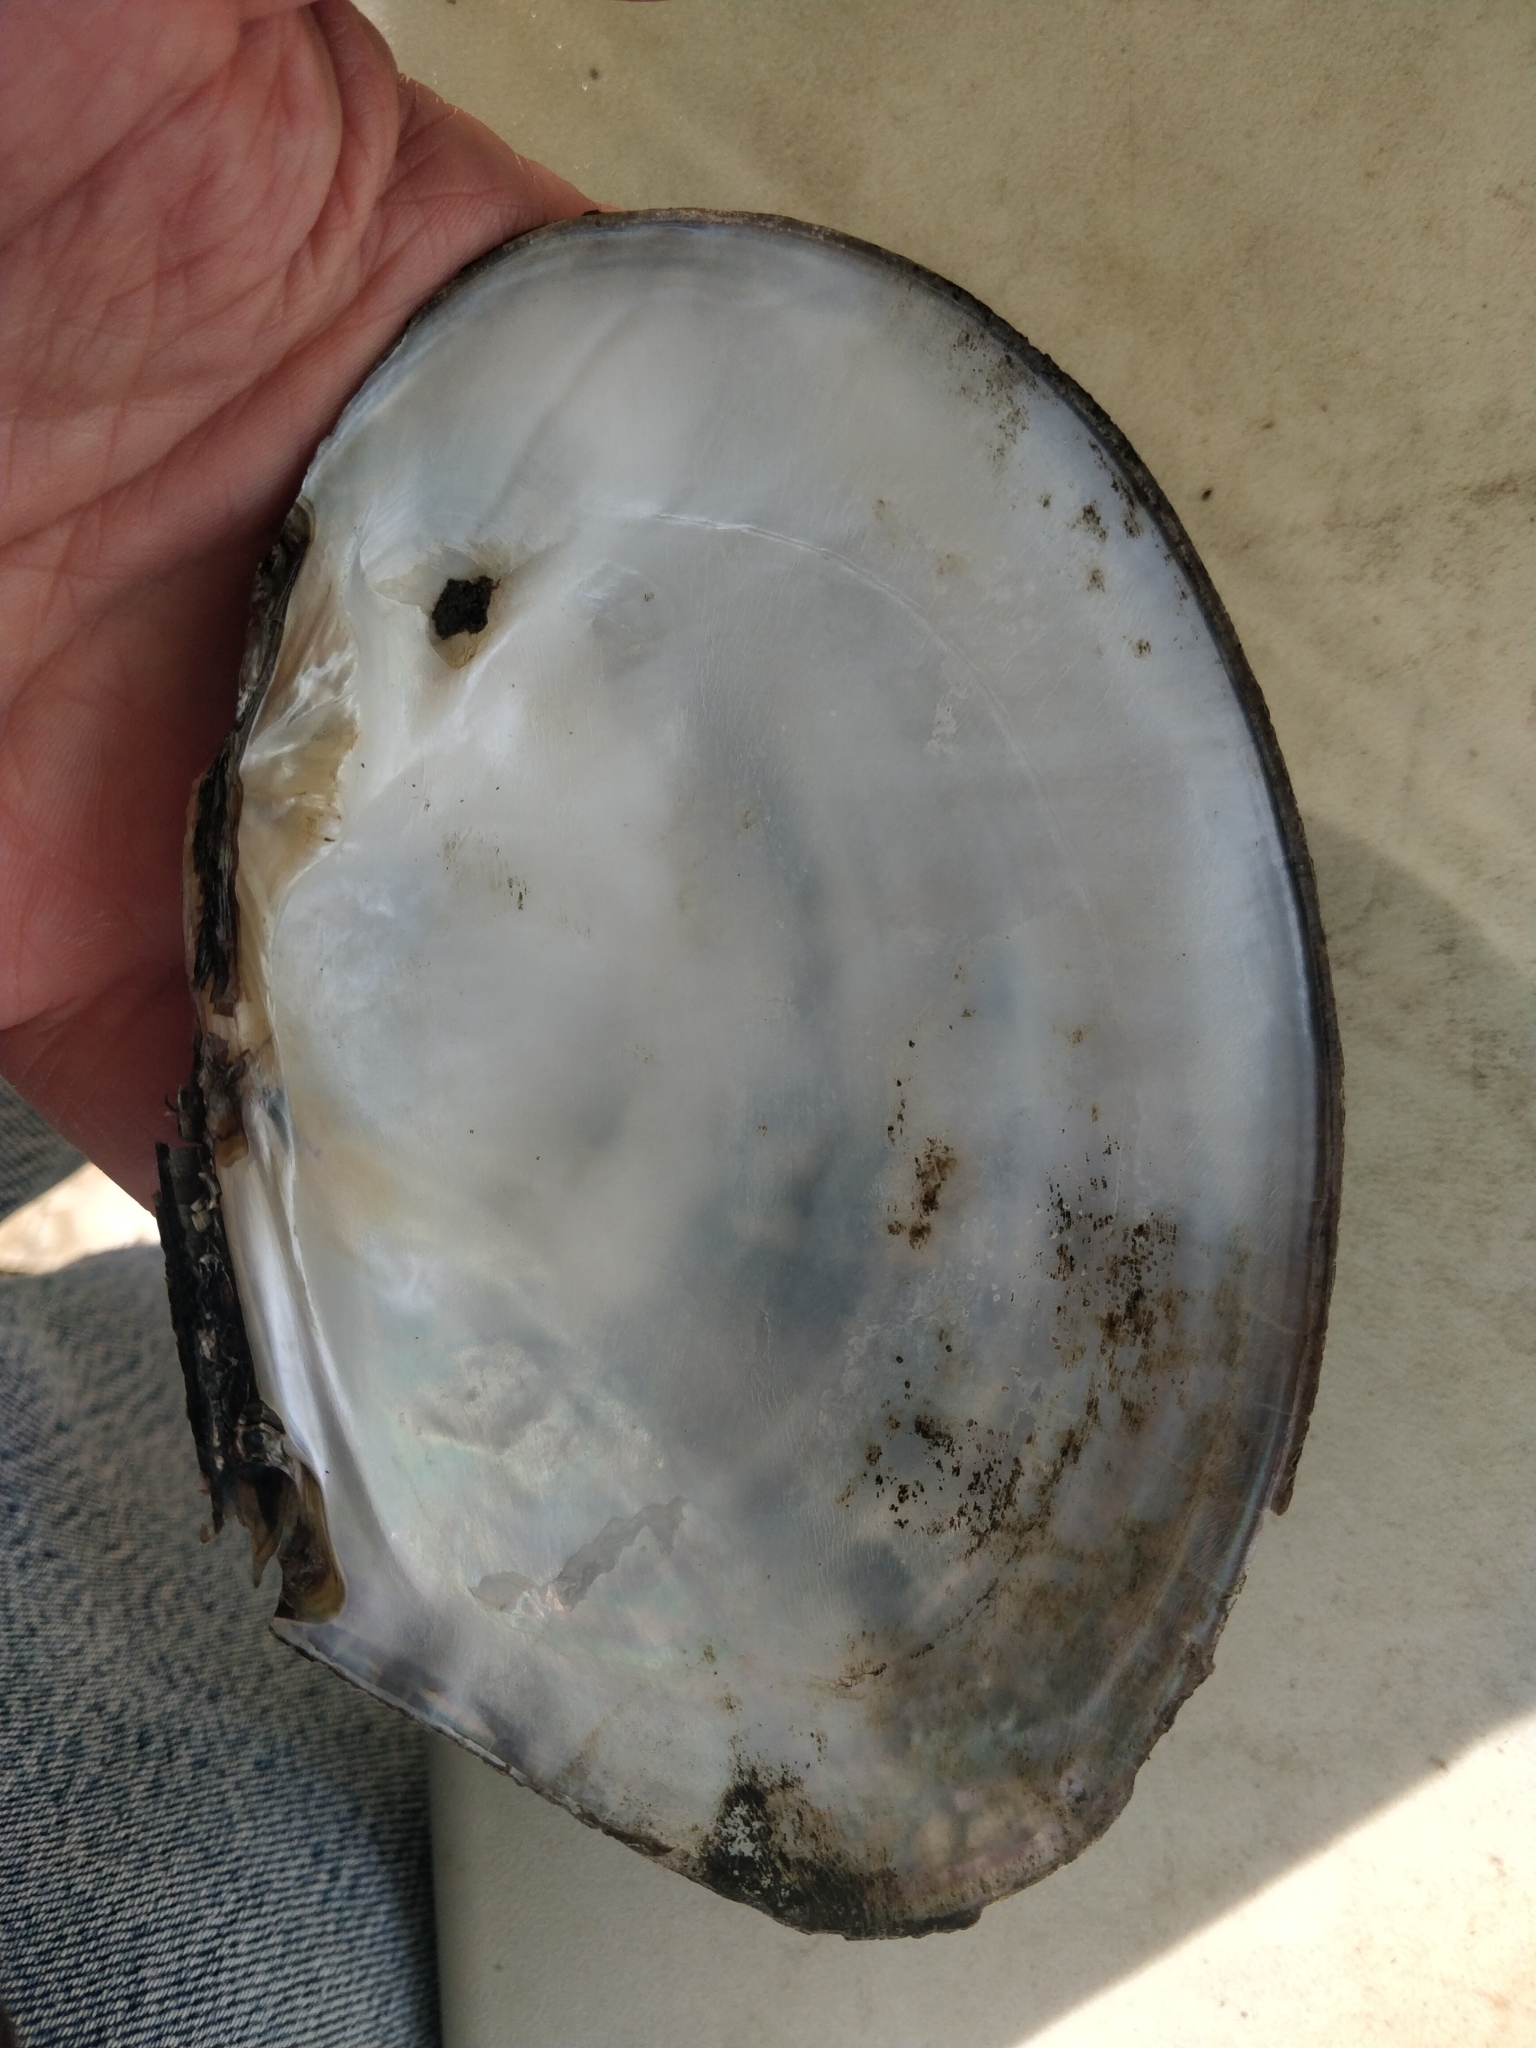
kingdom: Animalia
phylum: Mollusca
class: Bivalvia
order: Unionida
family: Unionidae
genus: Lasmigona
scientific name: Lasmigona complanata
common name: White heelsplitter
